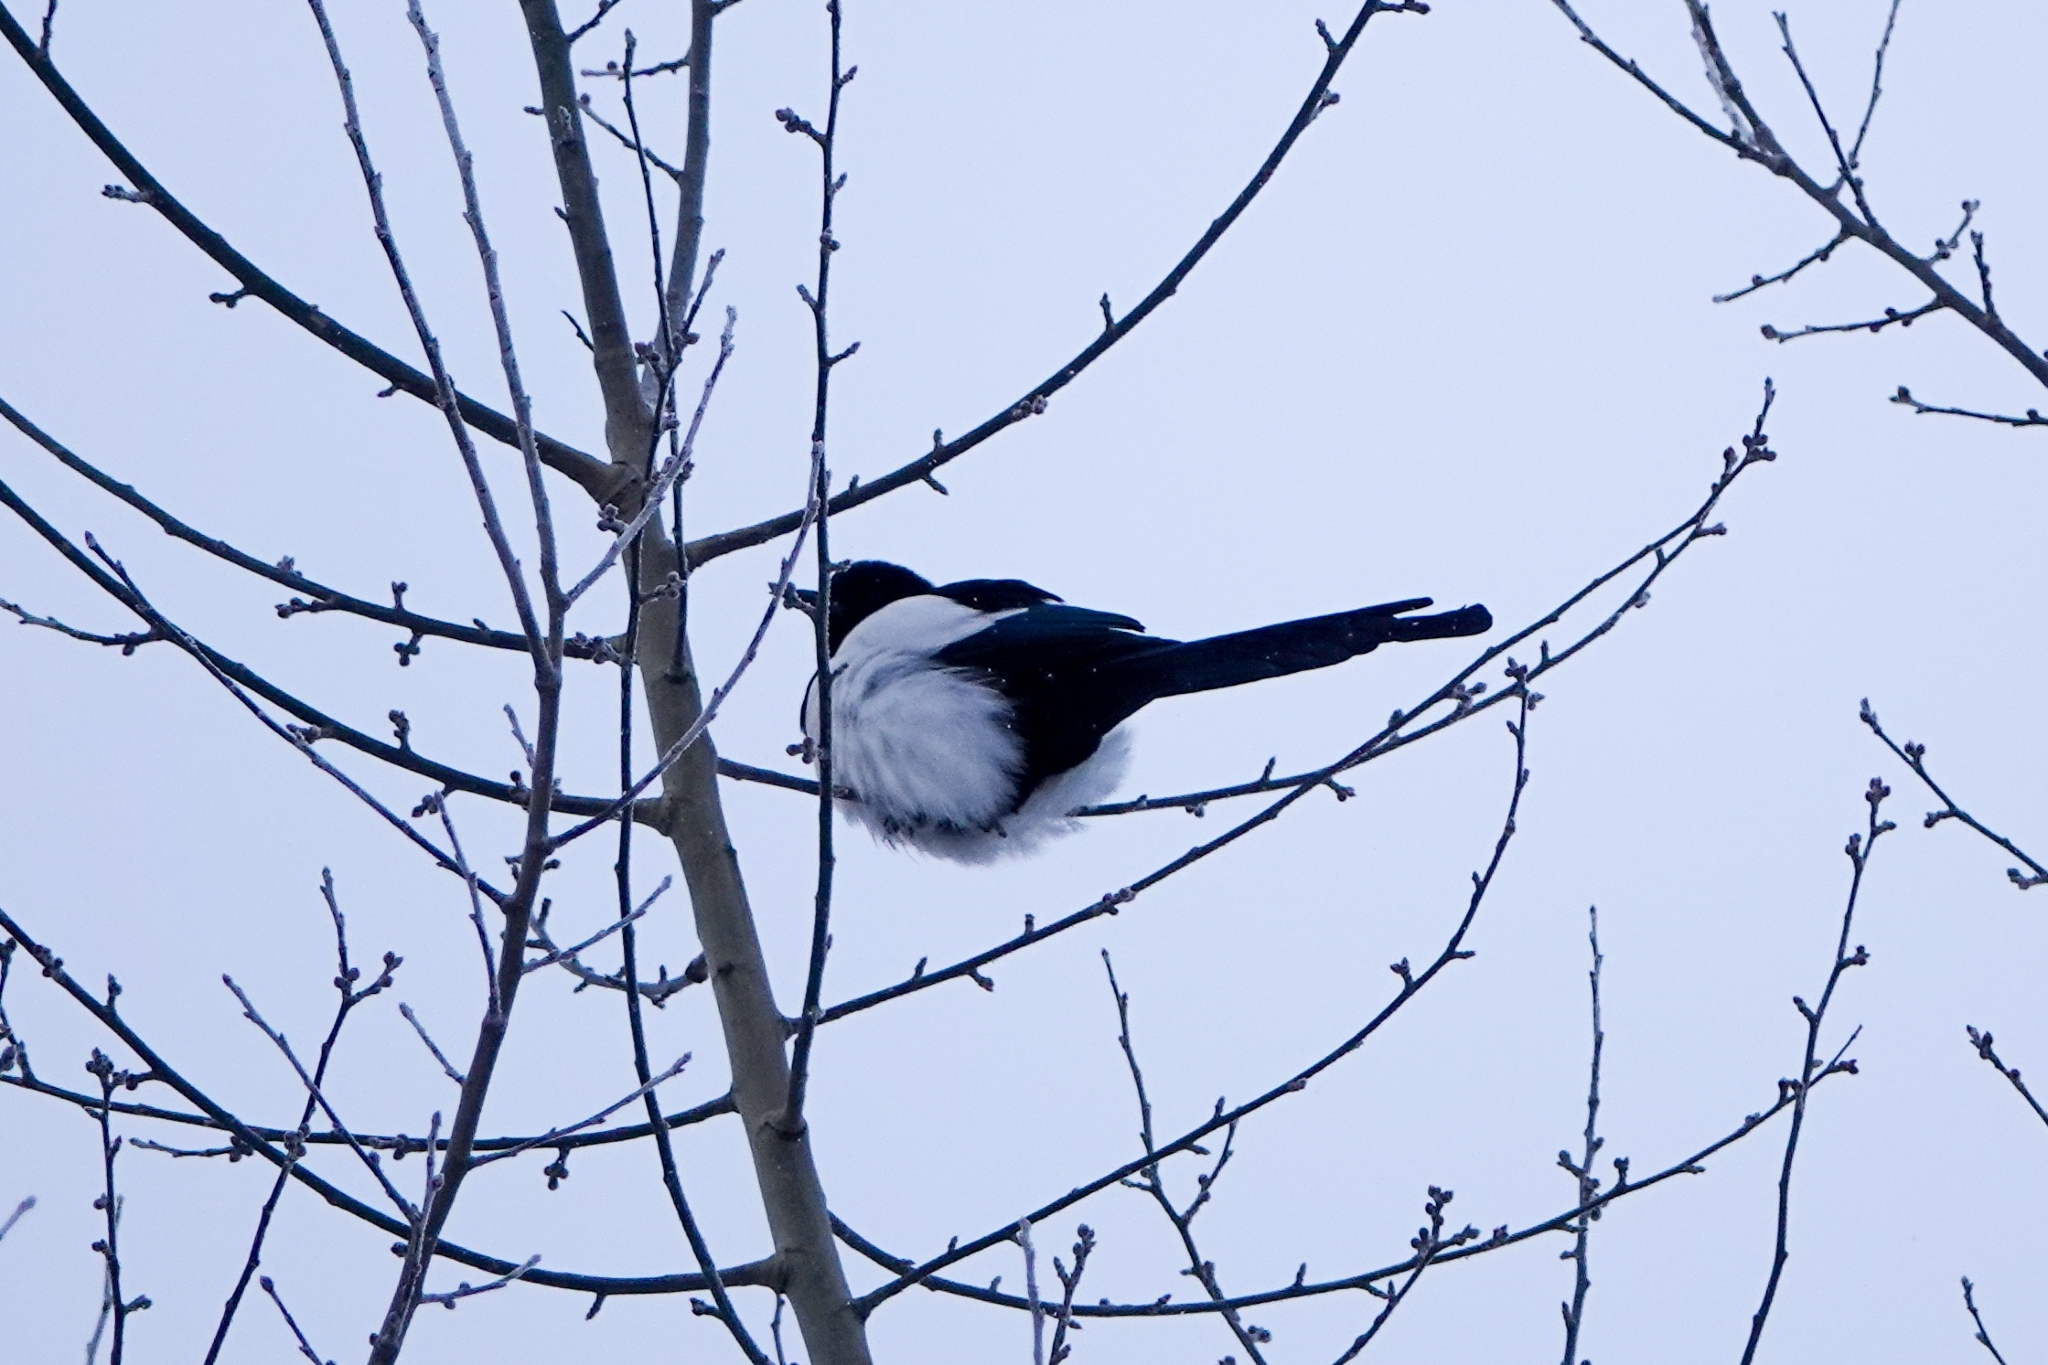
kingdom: Animalia
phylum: Chordata
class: Aves
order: Passeriformes
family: Corvidae
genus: Pica
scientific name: Pica pica
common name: Eurasian magpie
